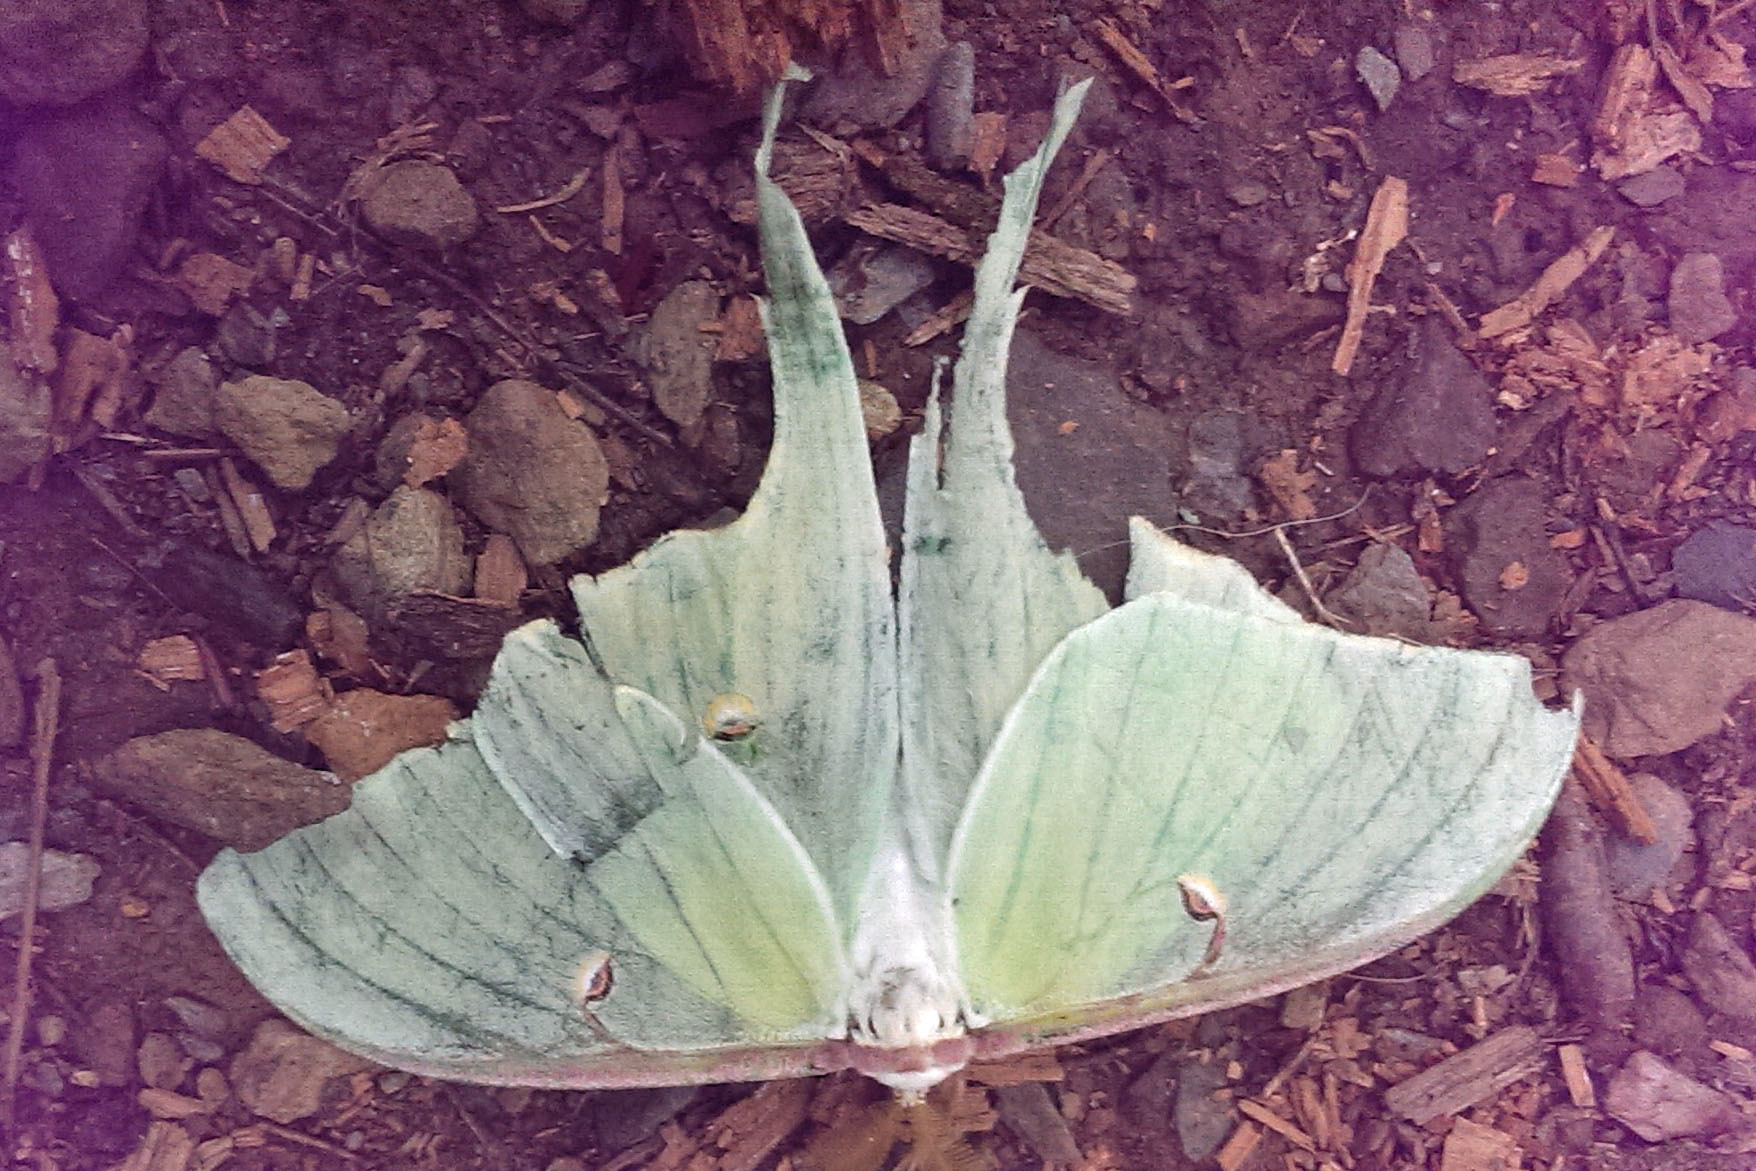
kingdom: Animalia
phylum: Arthropoda
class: Insecta
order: Lepidoptera
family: Saturniidae
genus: Actias
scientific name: Actias luna
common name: Luna moth
